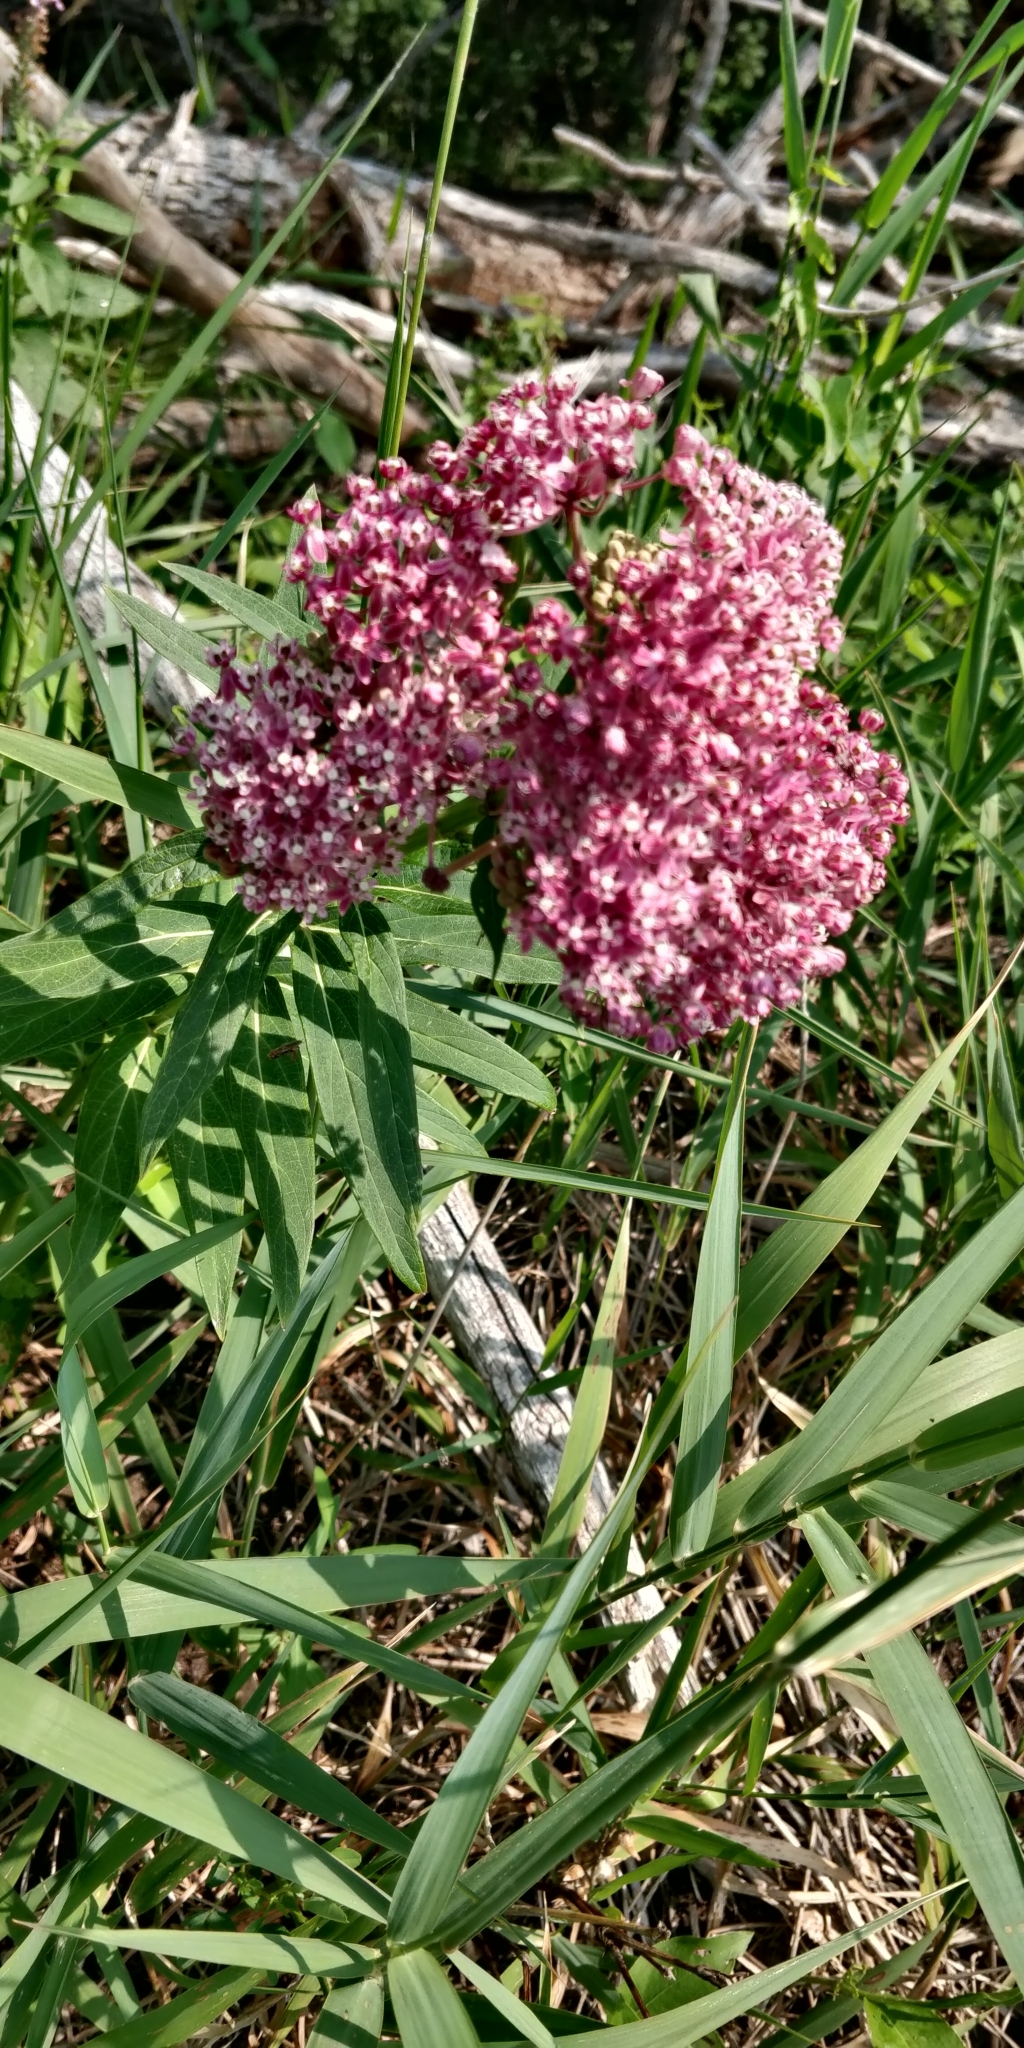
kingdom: Plantae
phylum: Tracheophyta
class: Magnoliopsida
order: Gentianales
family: Apocynaceae
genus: Asclepias
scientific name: Asclepias incarnata
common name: Swamp milkweed
